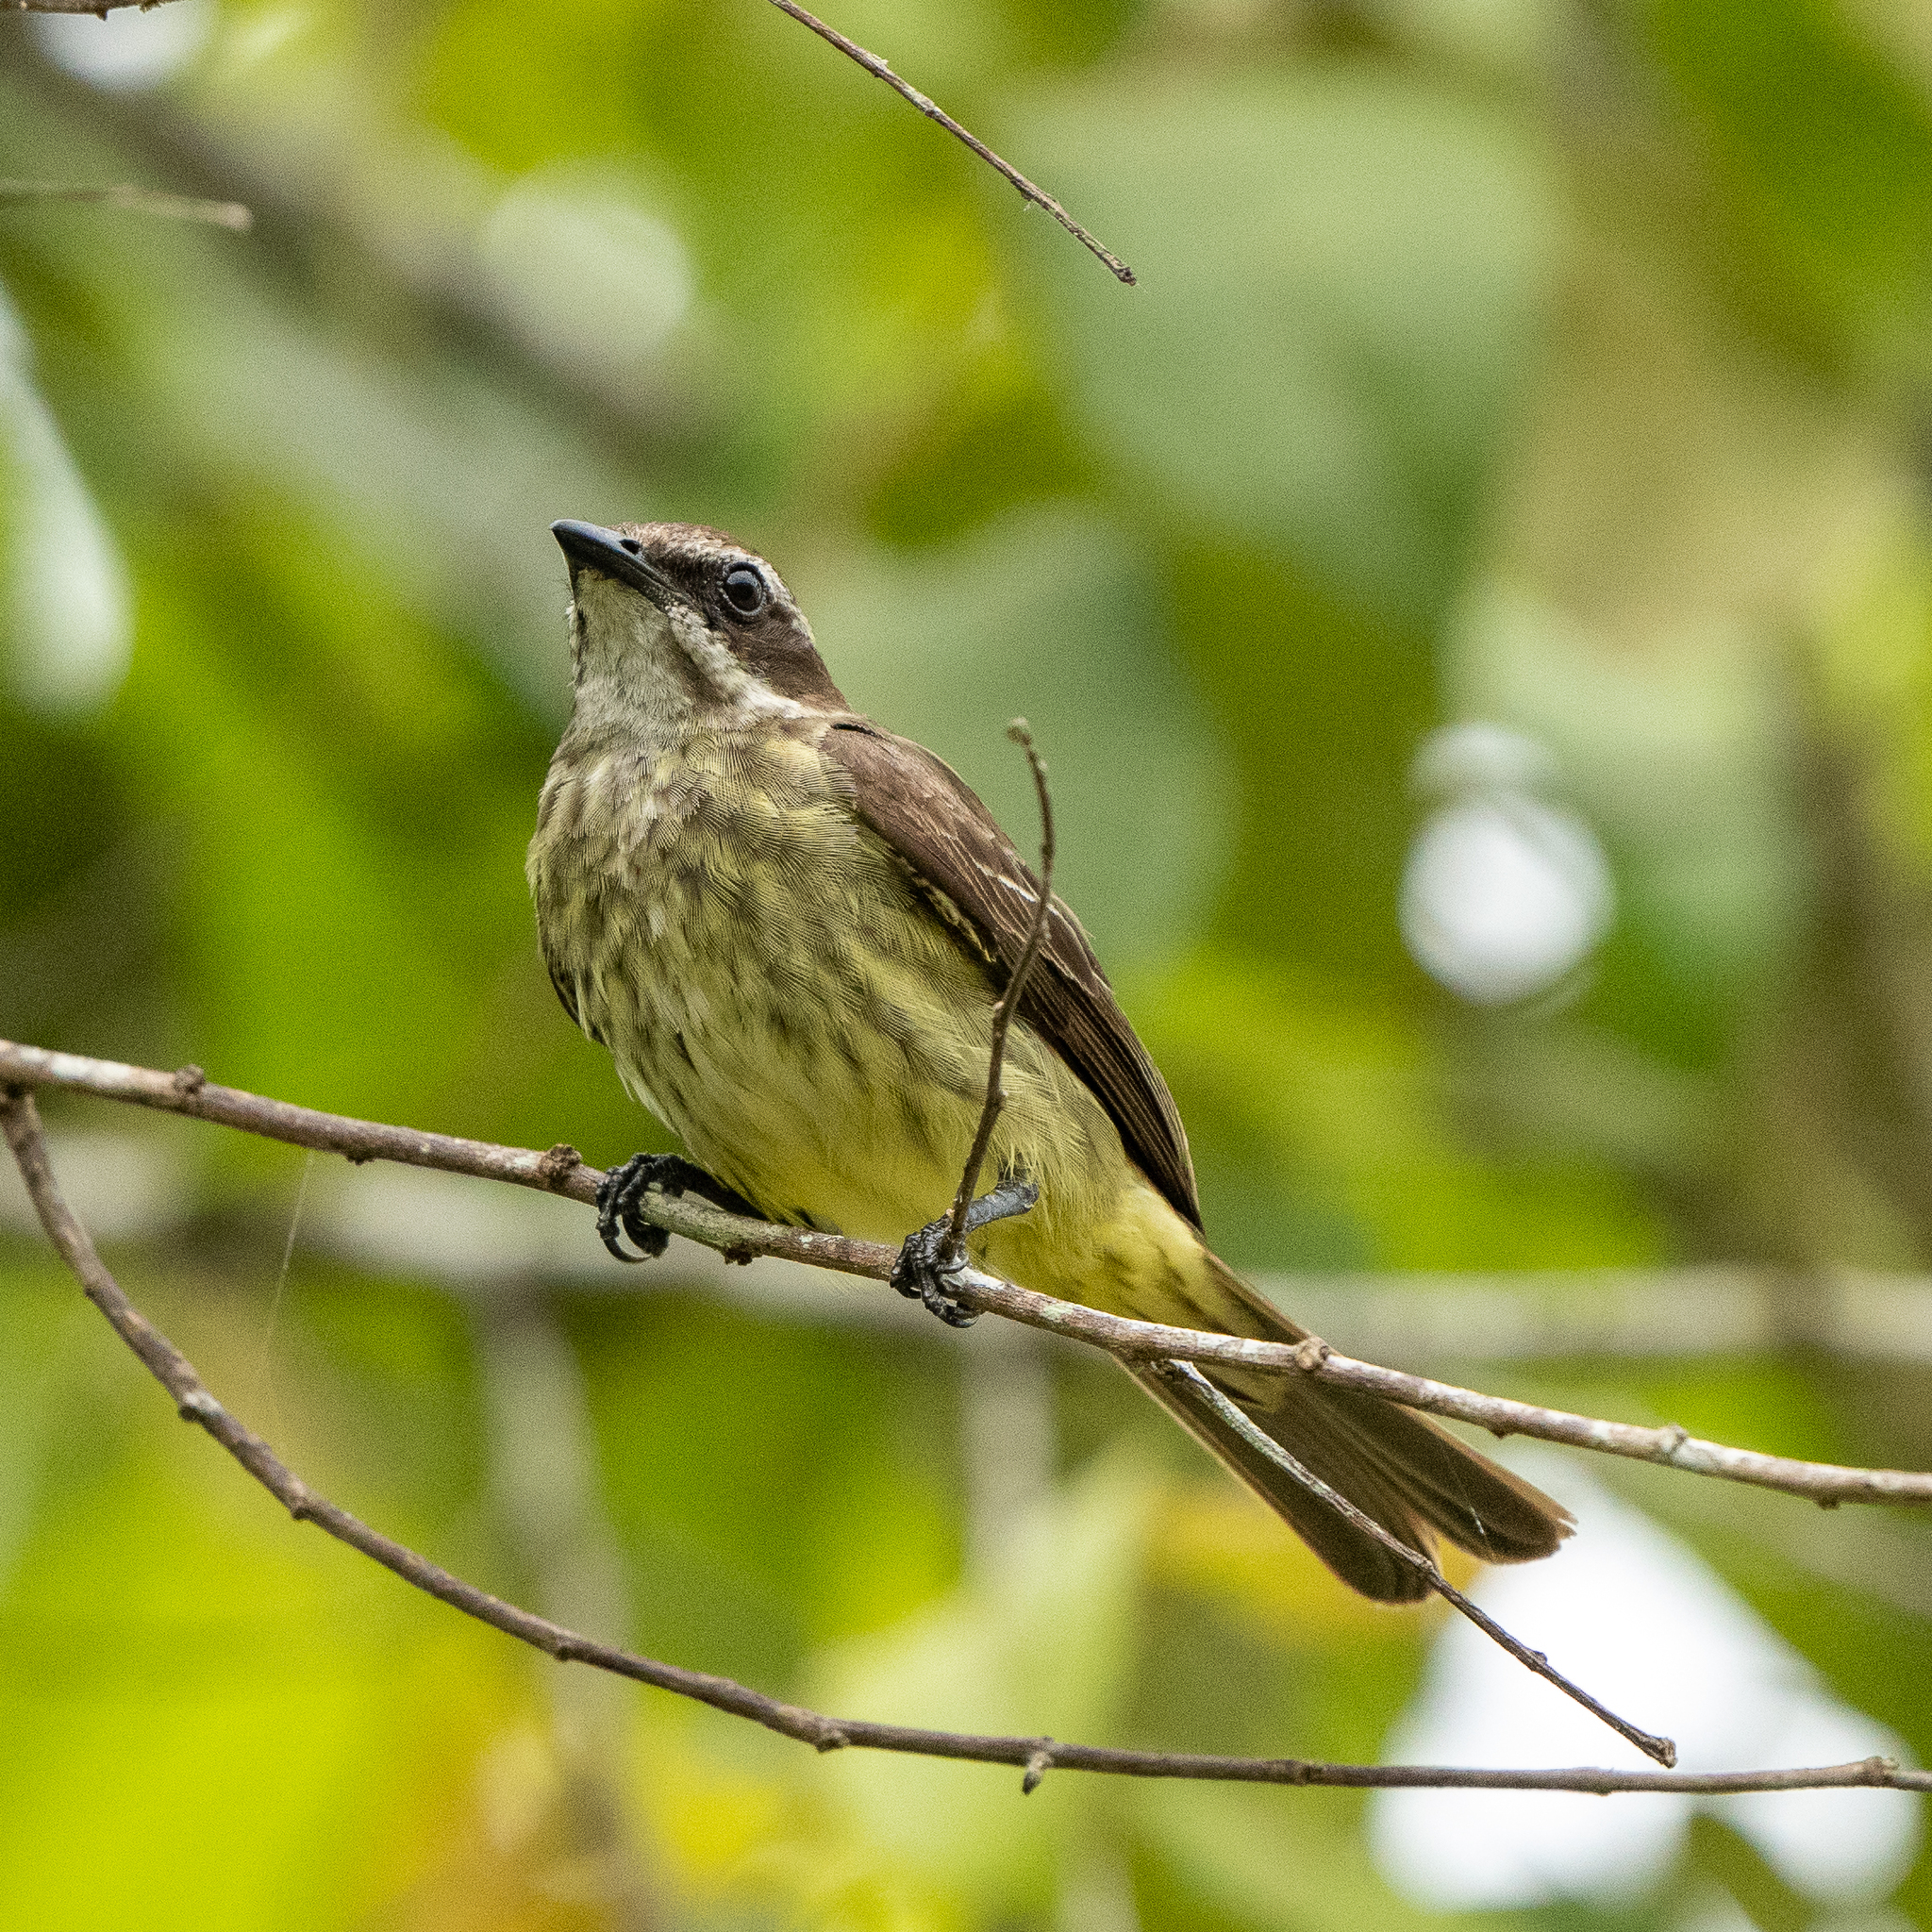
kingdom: Animalia
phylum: Chordata
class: Aves
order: Passeriformes
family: Tyrannidae
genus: Legatus
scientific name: Legatus leucophaius
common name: Piratic flycatcher
